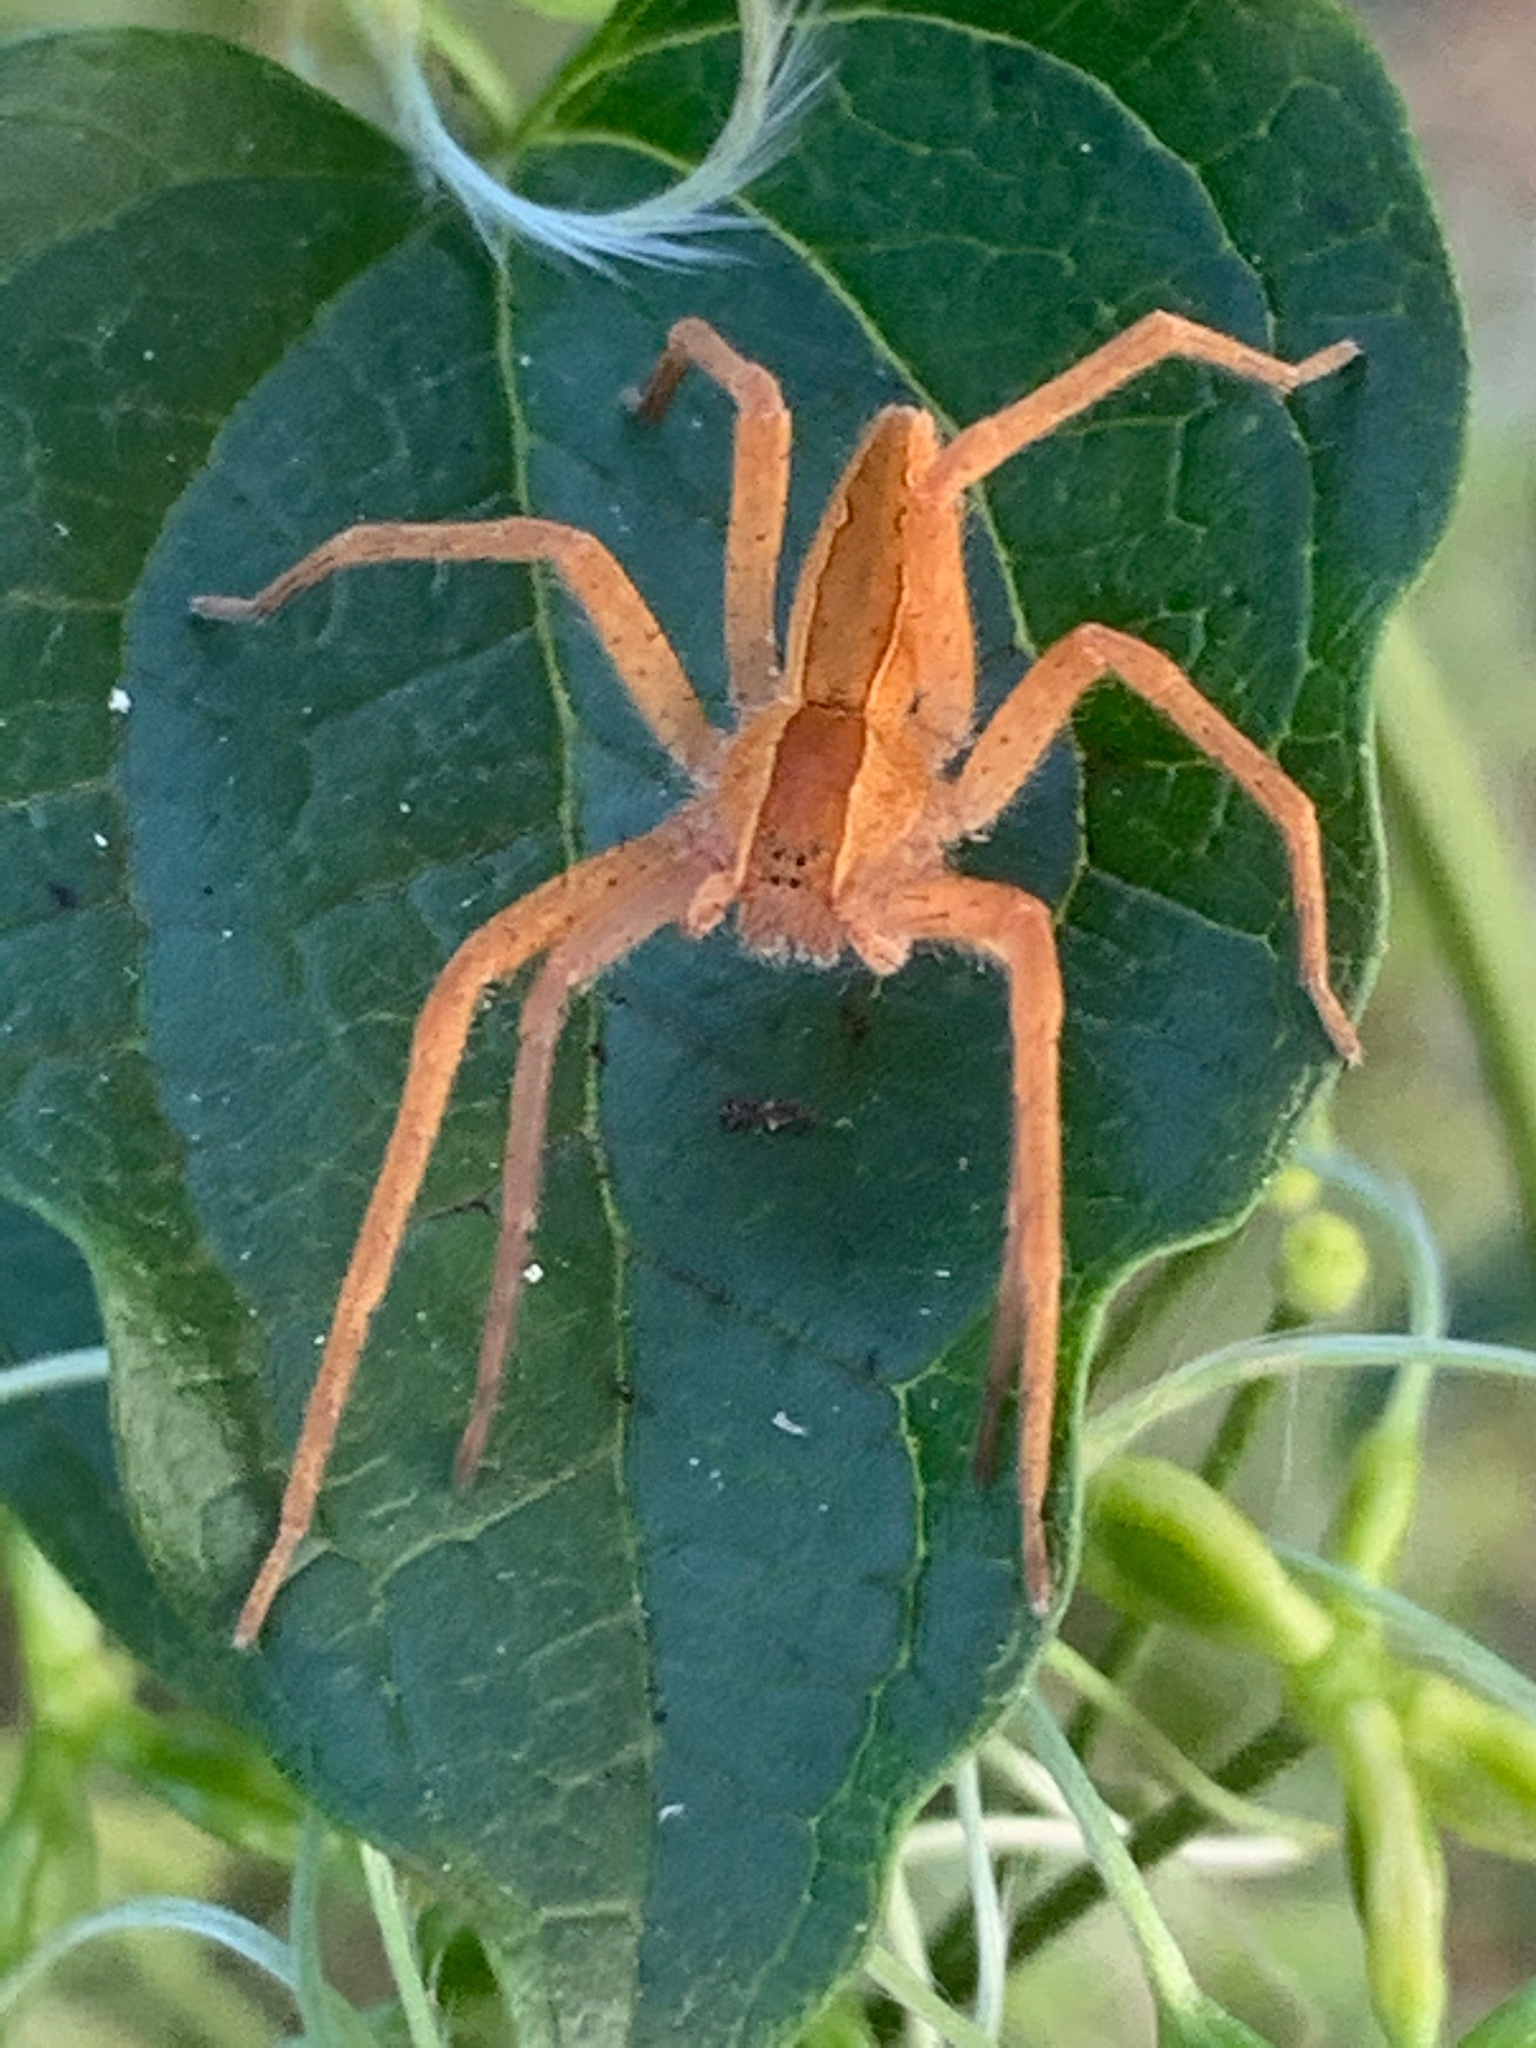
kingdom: Animalia
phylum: Arthropoda
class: Arachnida
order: Araneae
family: Pisauridae
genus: Pisaurina
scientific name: Pisaurina mira
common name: American nursery web spider
